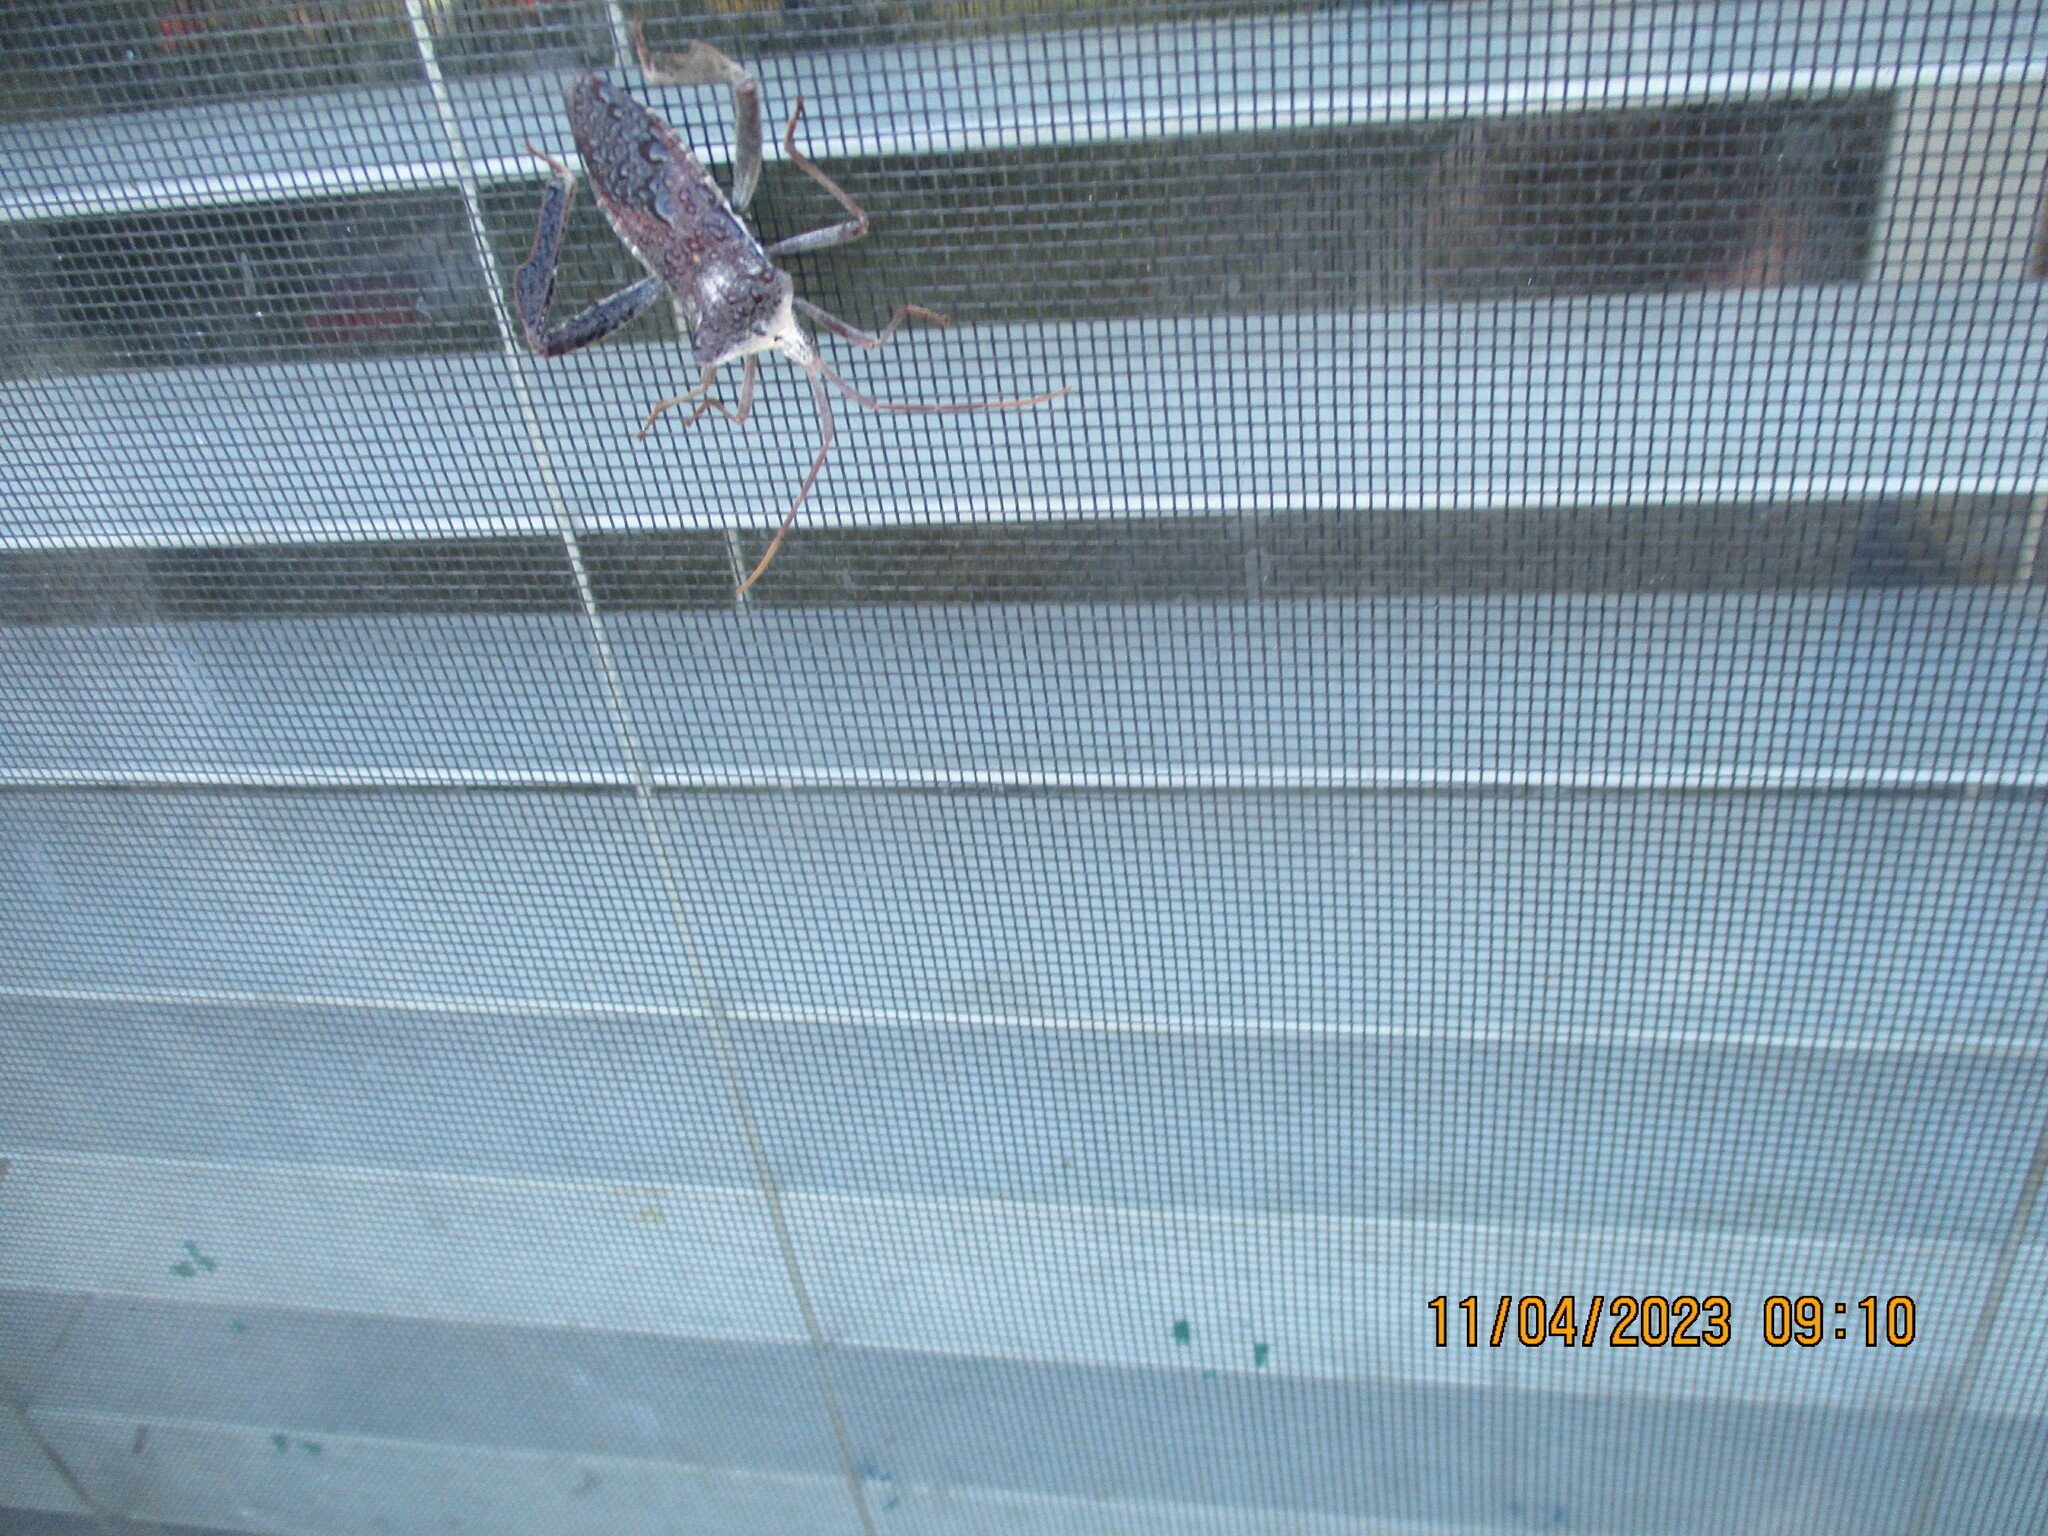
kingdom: Animalia
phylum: Arthropoda
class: Insecta
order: Hemiptera
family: Coreidae
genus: Acanthocephala
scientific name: Acanthocephala declivis
